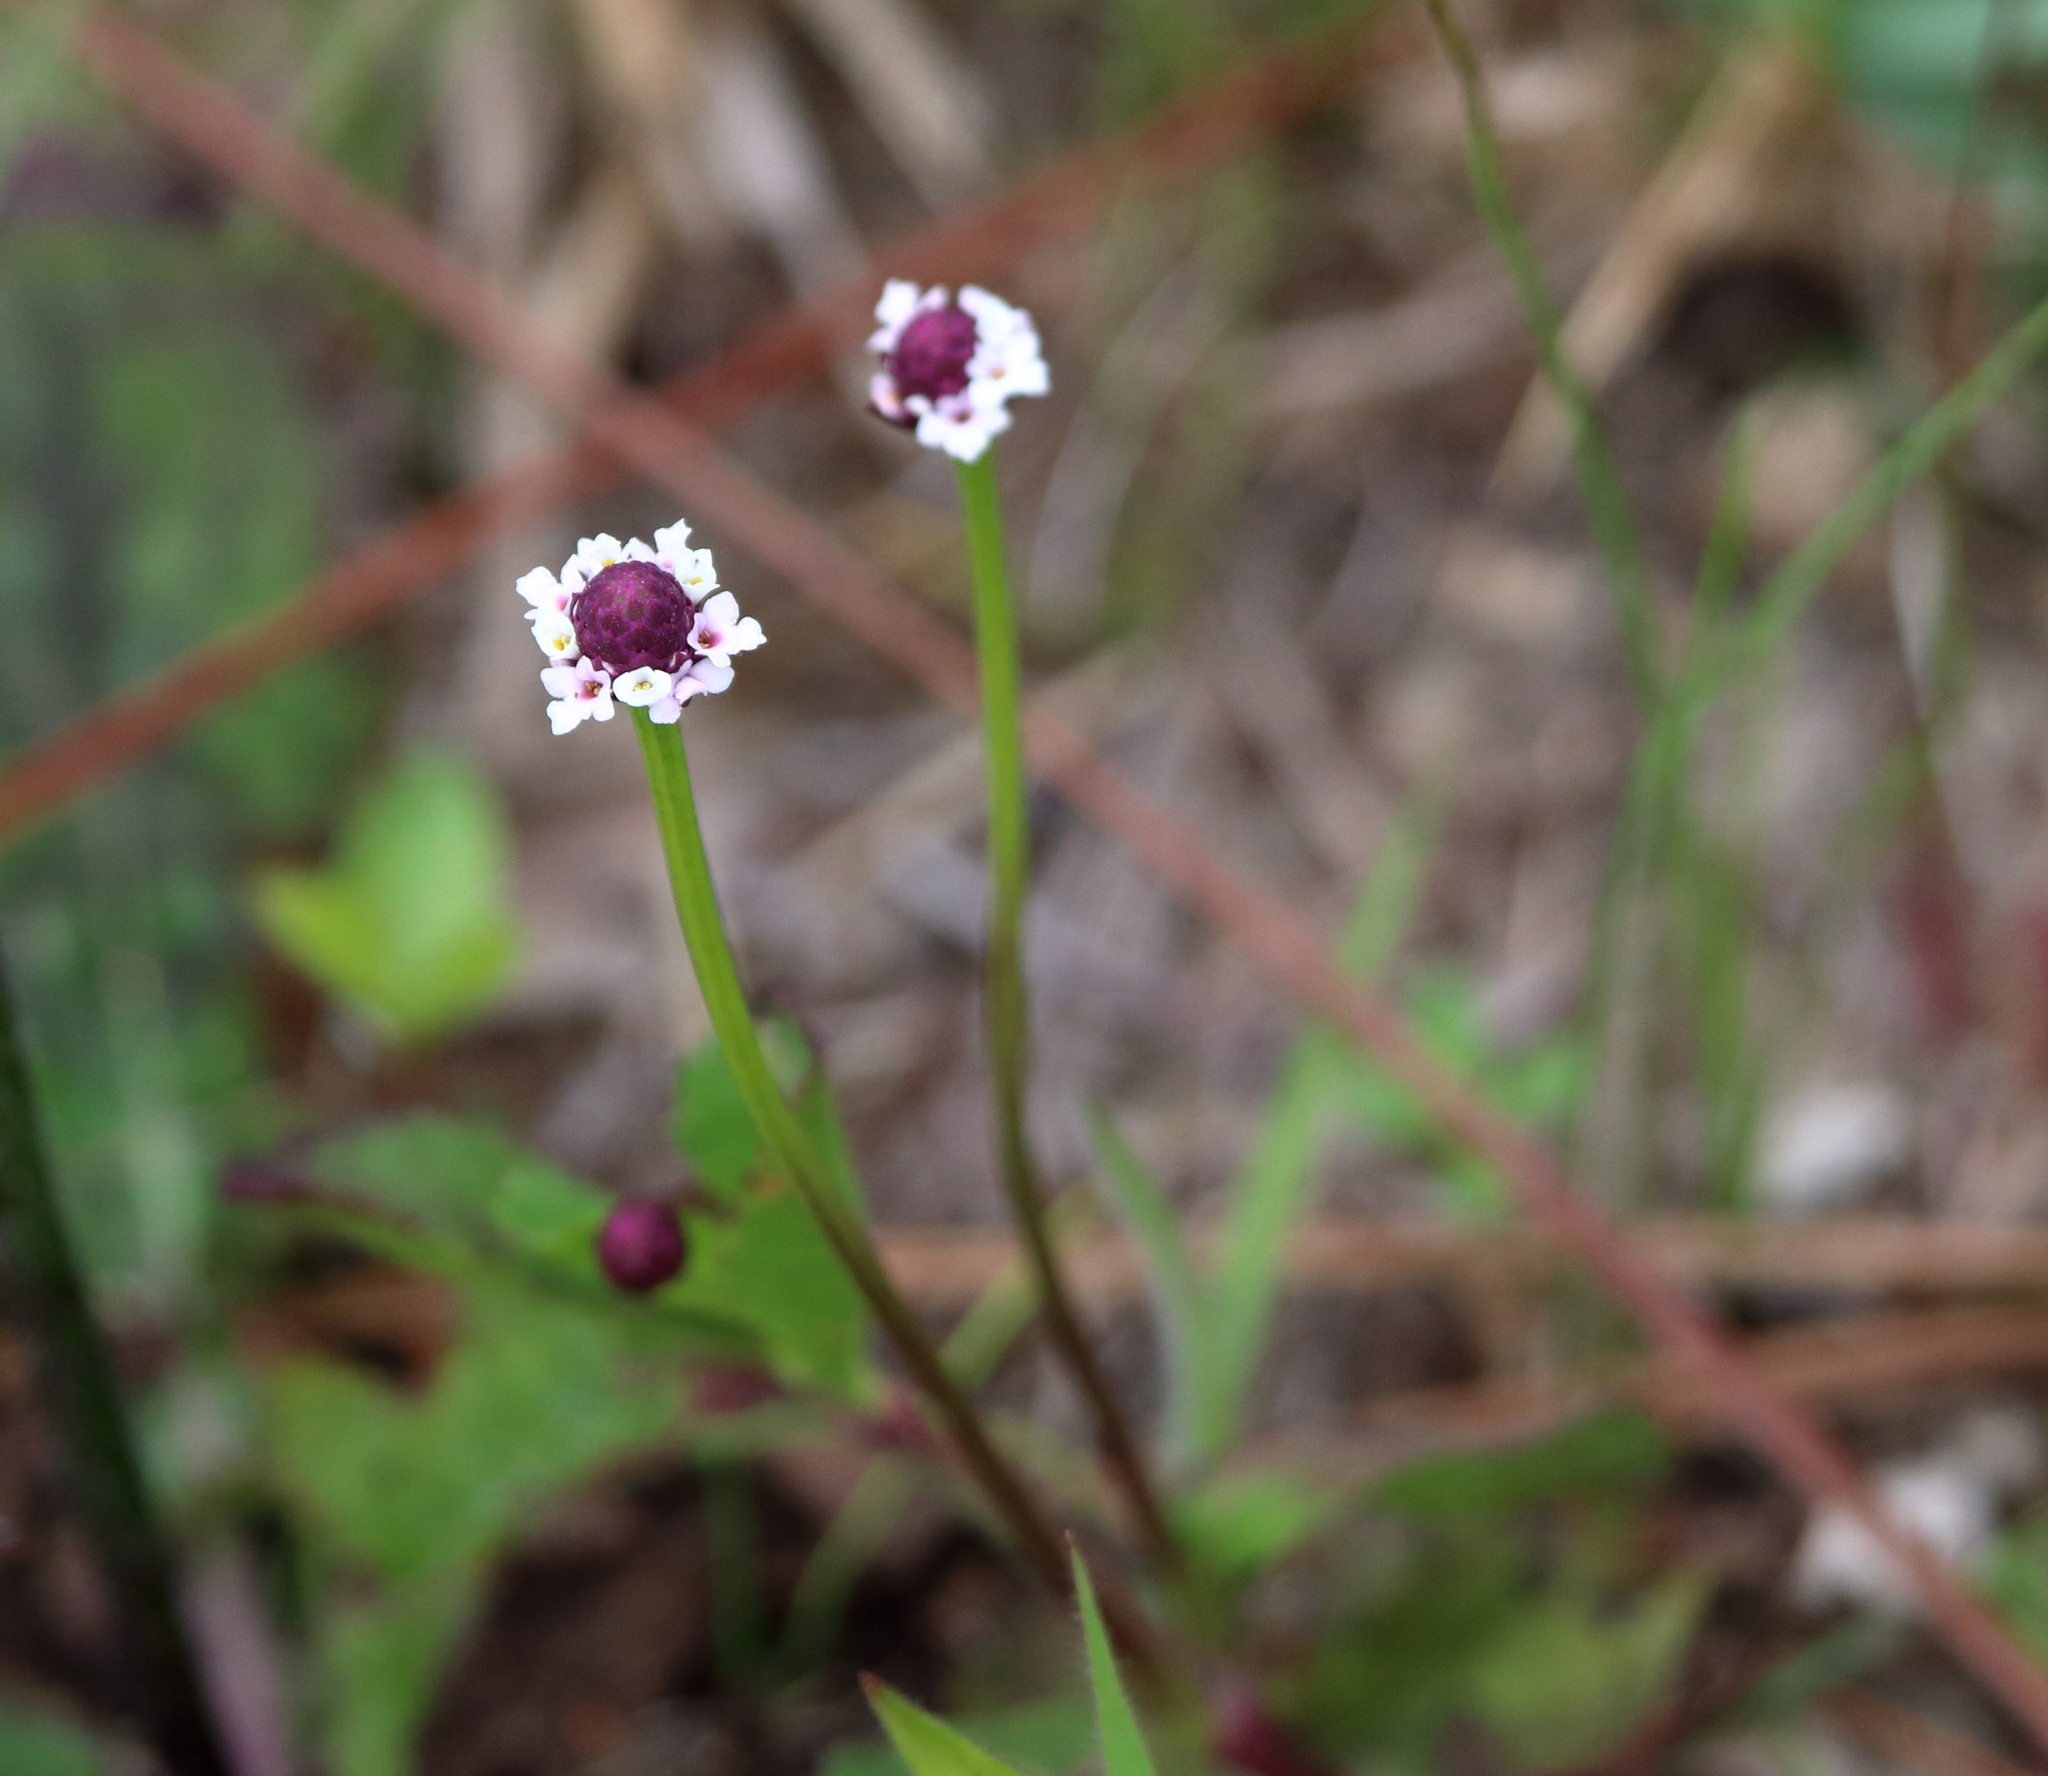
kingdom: Plantae
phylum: Tracheophyta
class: Magnoliopsida
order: Lamiales
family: Verbenaceae
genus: Phyla
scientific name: Phyla nodiflora
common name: Frogfruit
